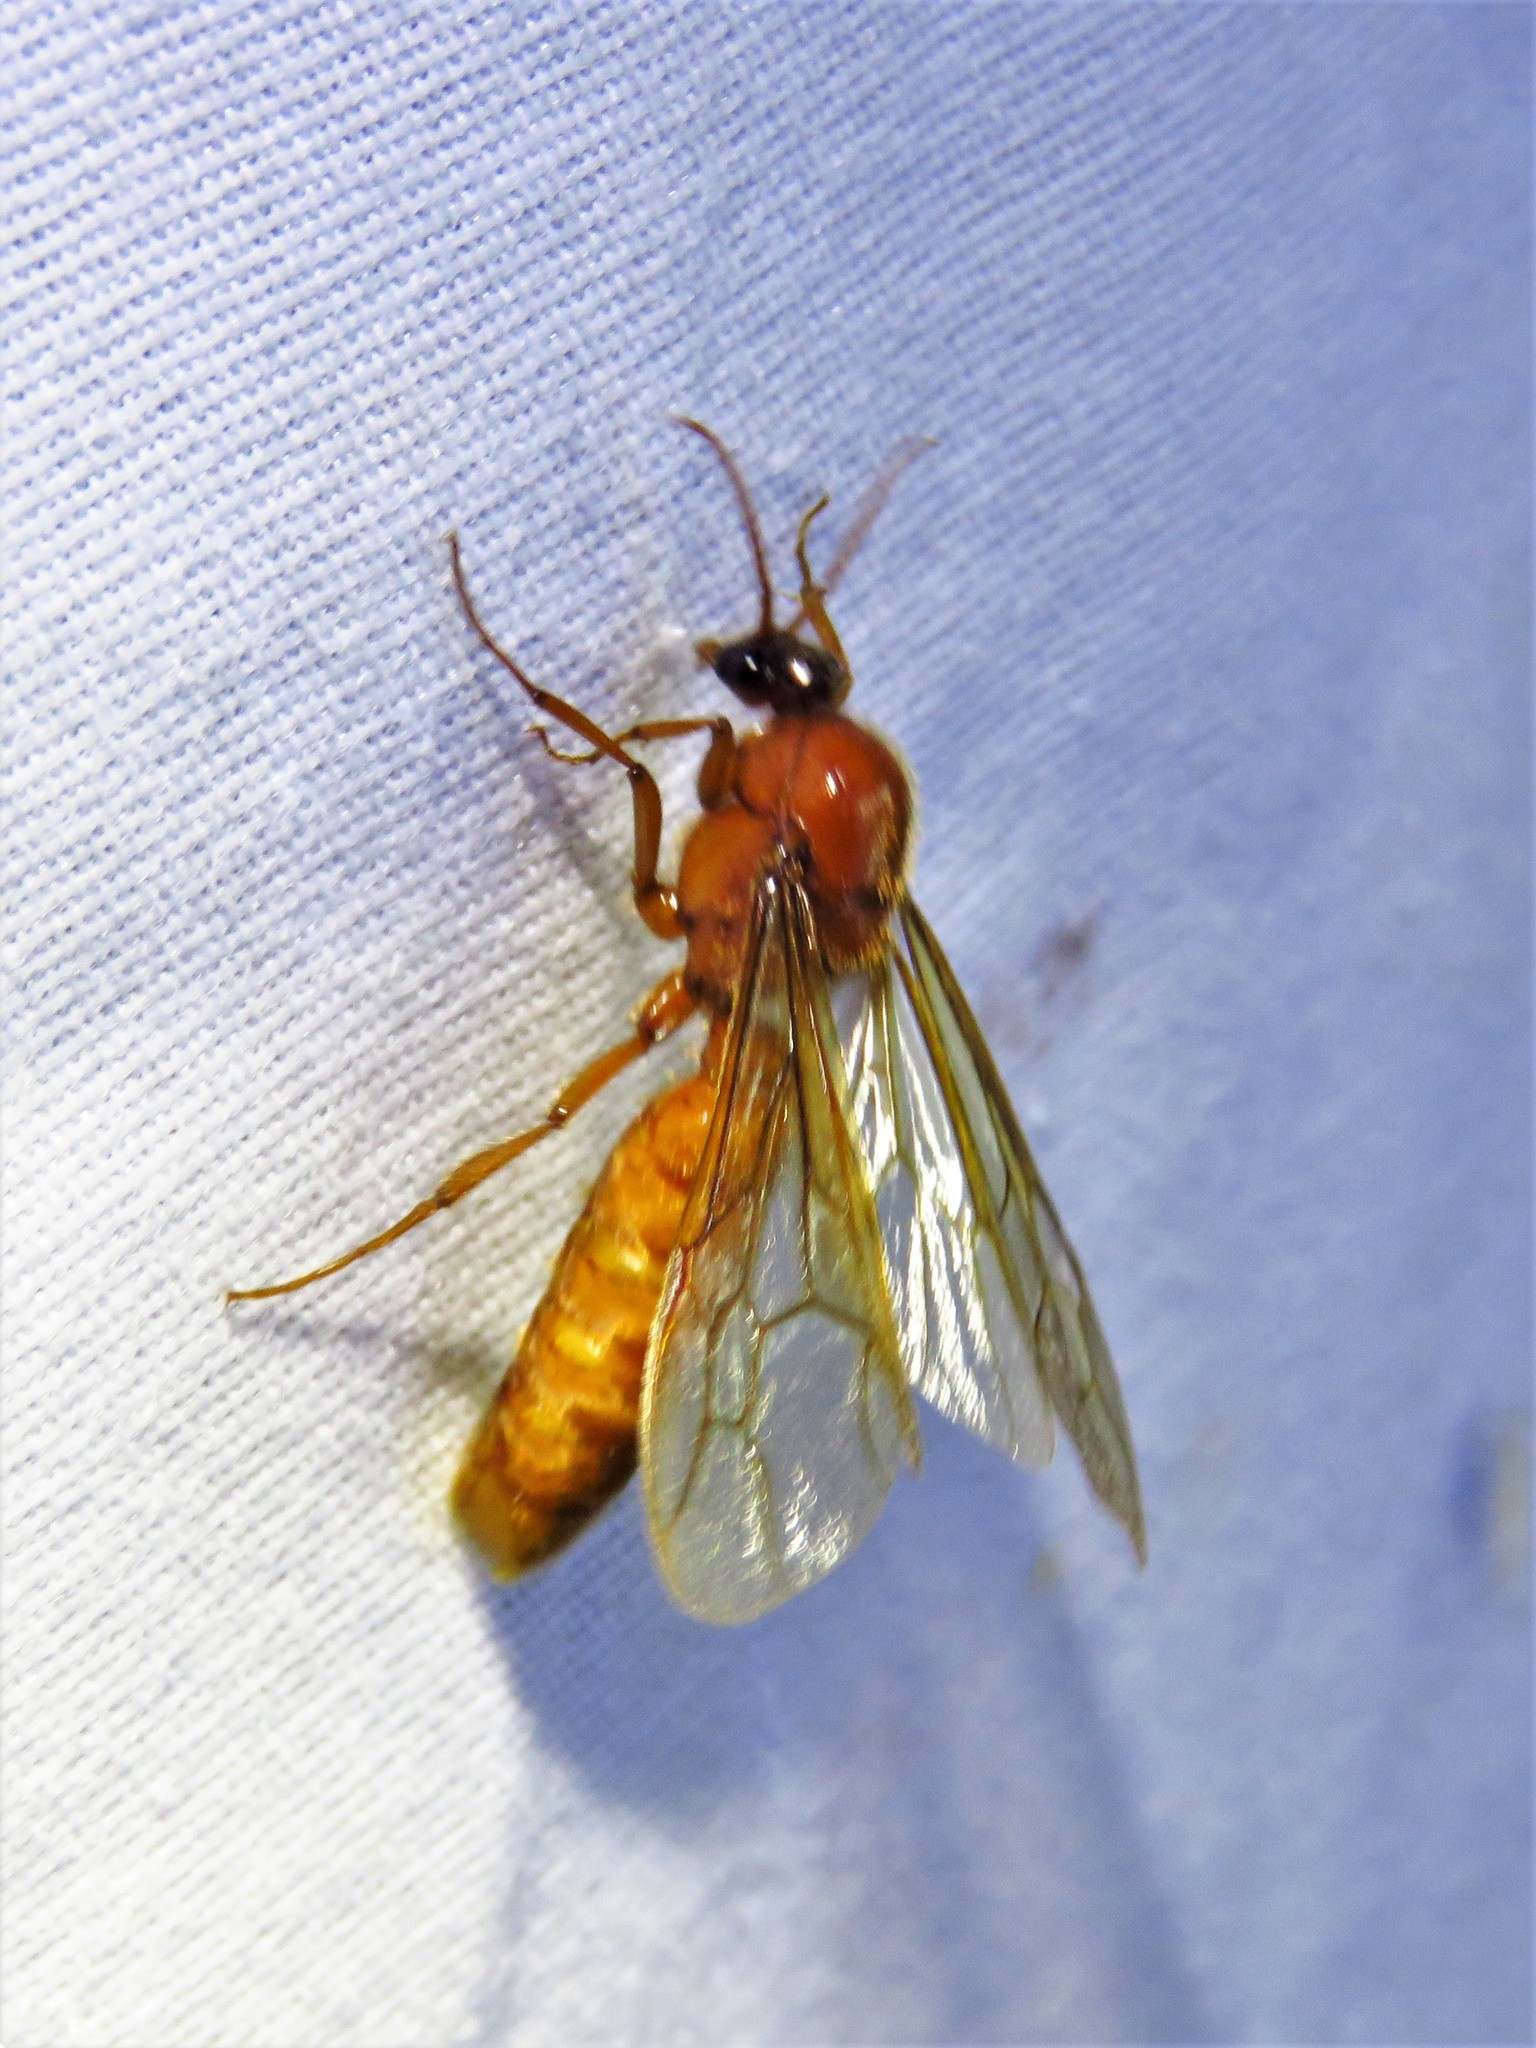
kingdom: Animalia
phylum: Arthropoda
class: Insecta
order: Hymenoptera
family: Formicidae
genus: Labidus
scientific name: Labidus coecus
